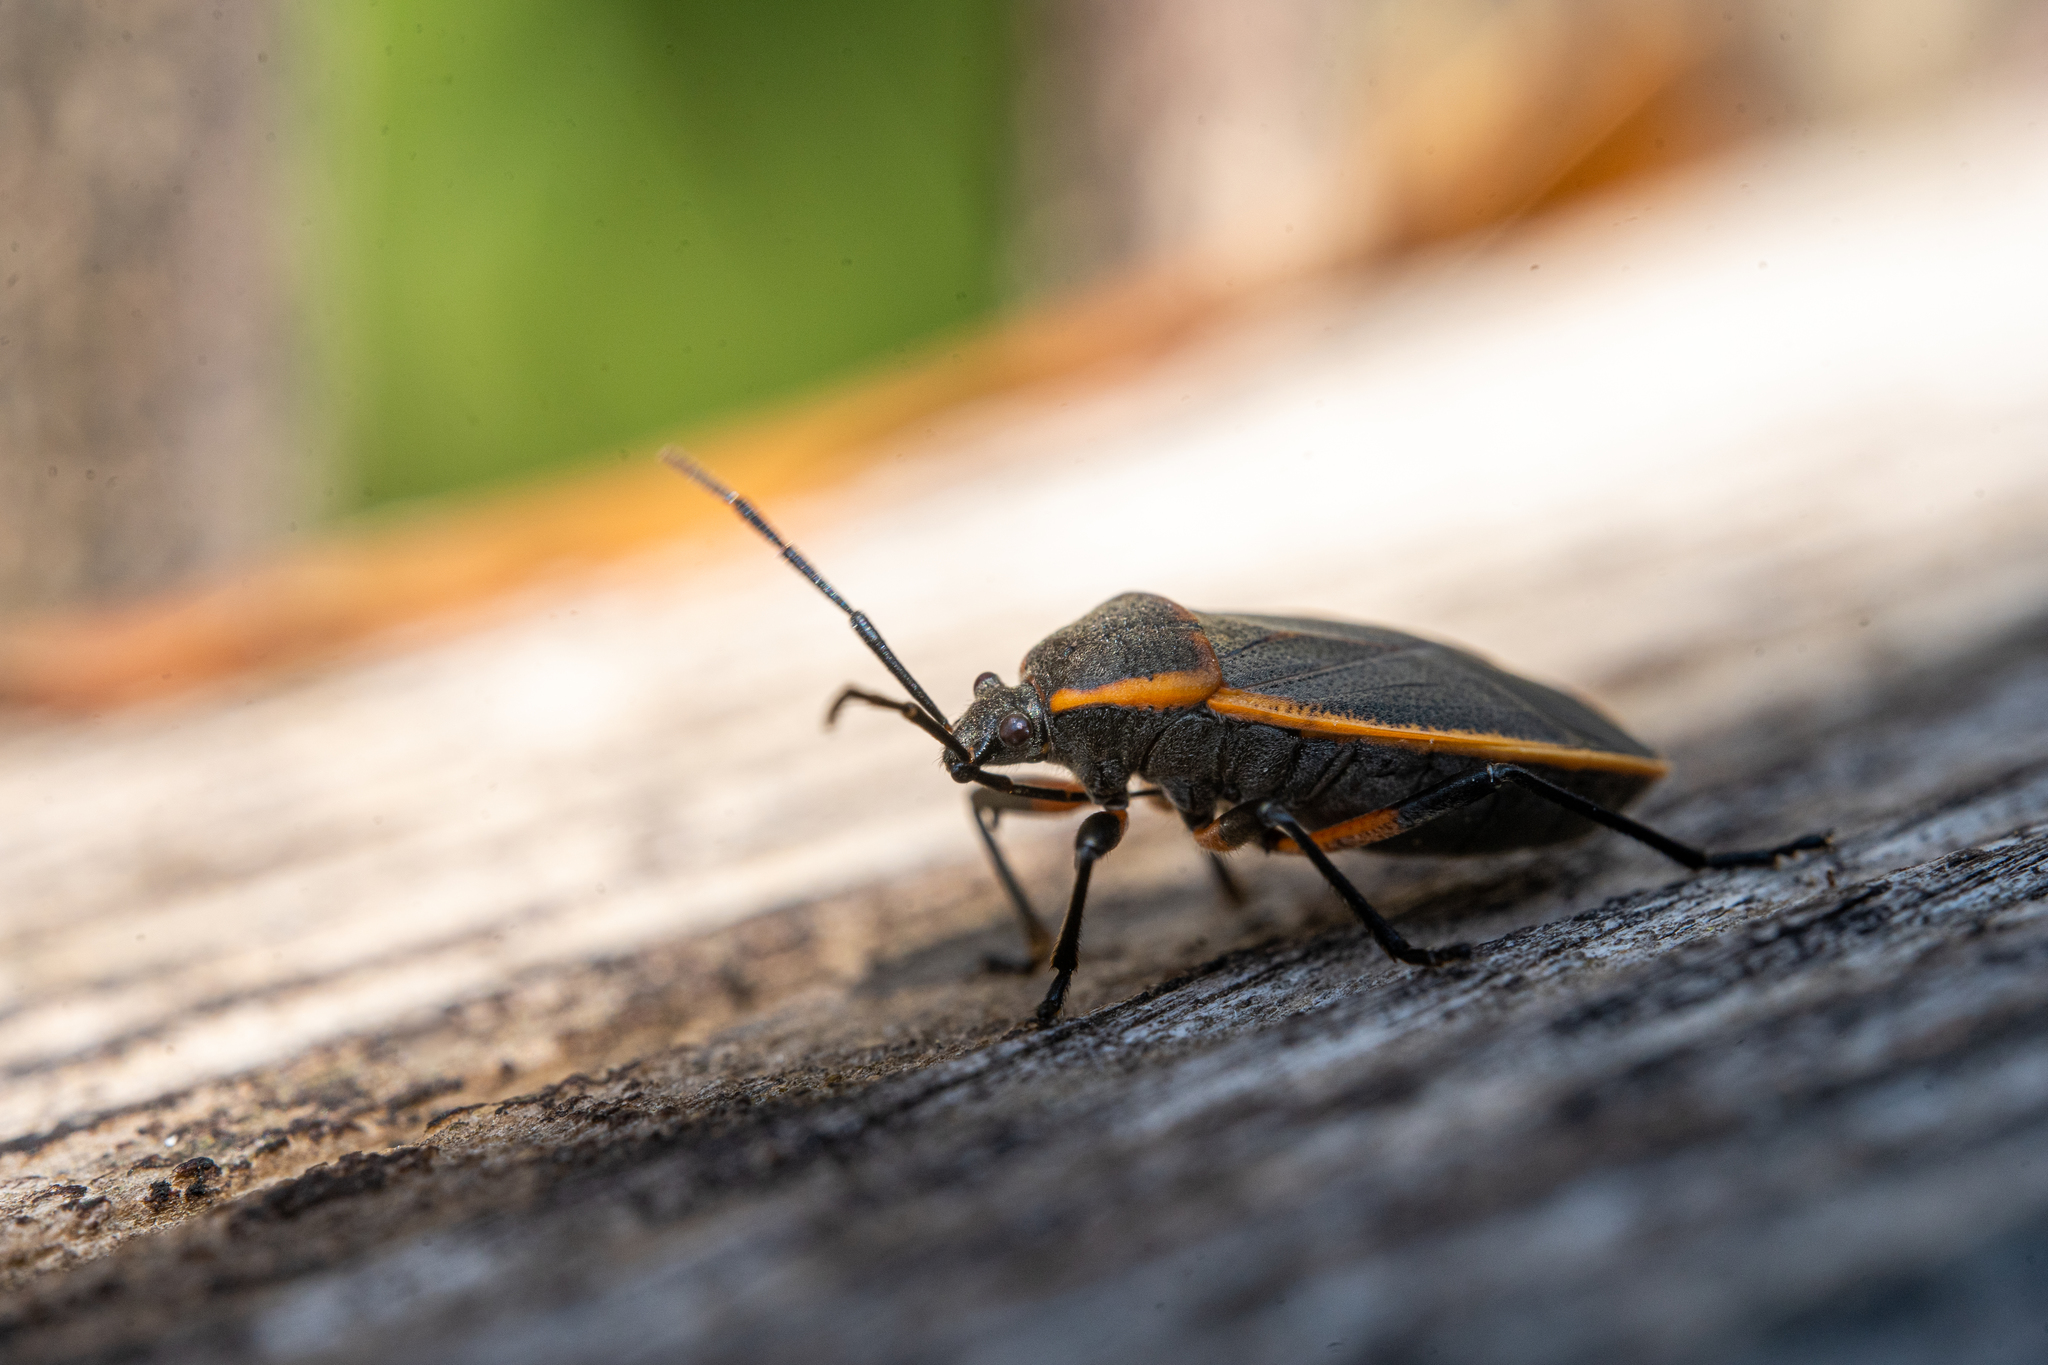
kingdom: Animalia
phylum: Arthropoda
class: Insecta
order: Hemiptera
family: Largidae
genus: Largus
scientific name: Largus succinctus
